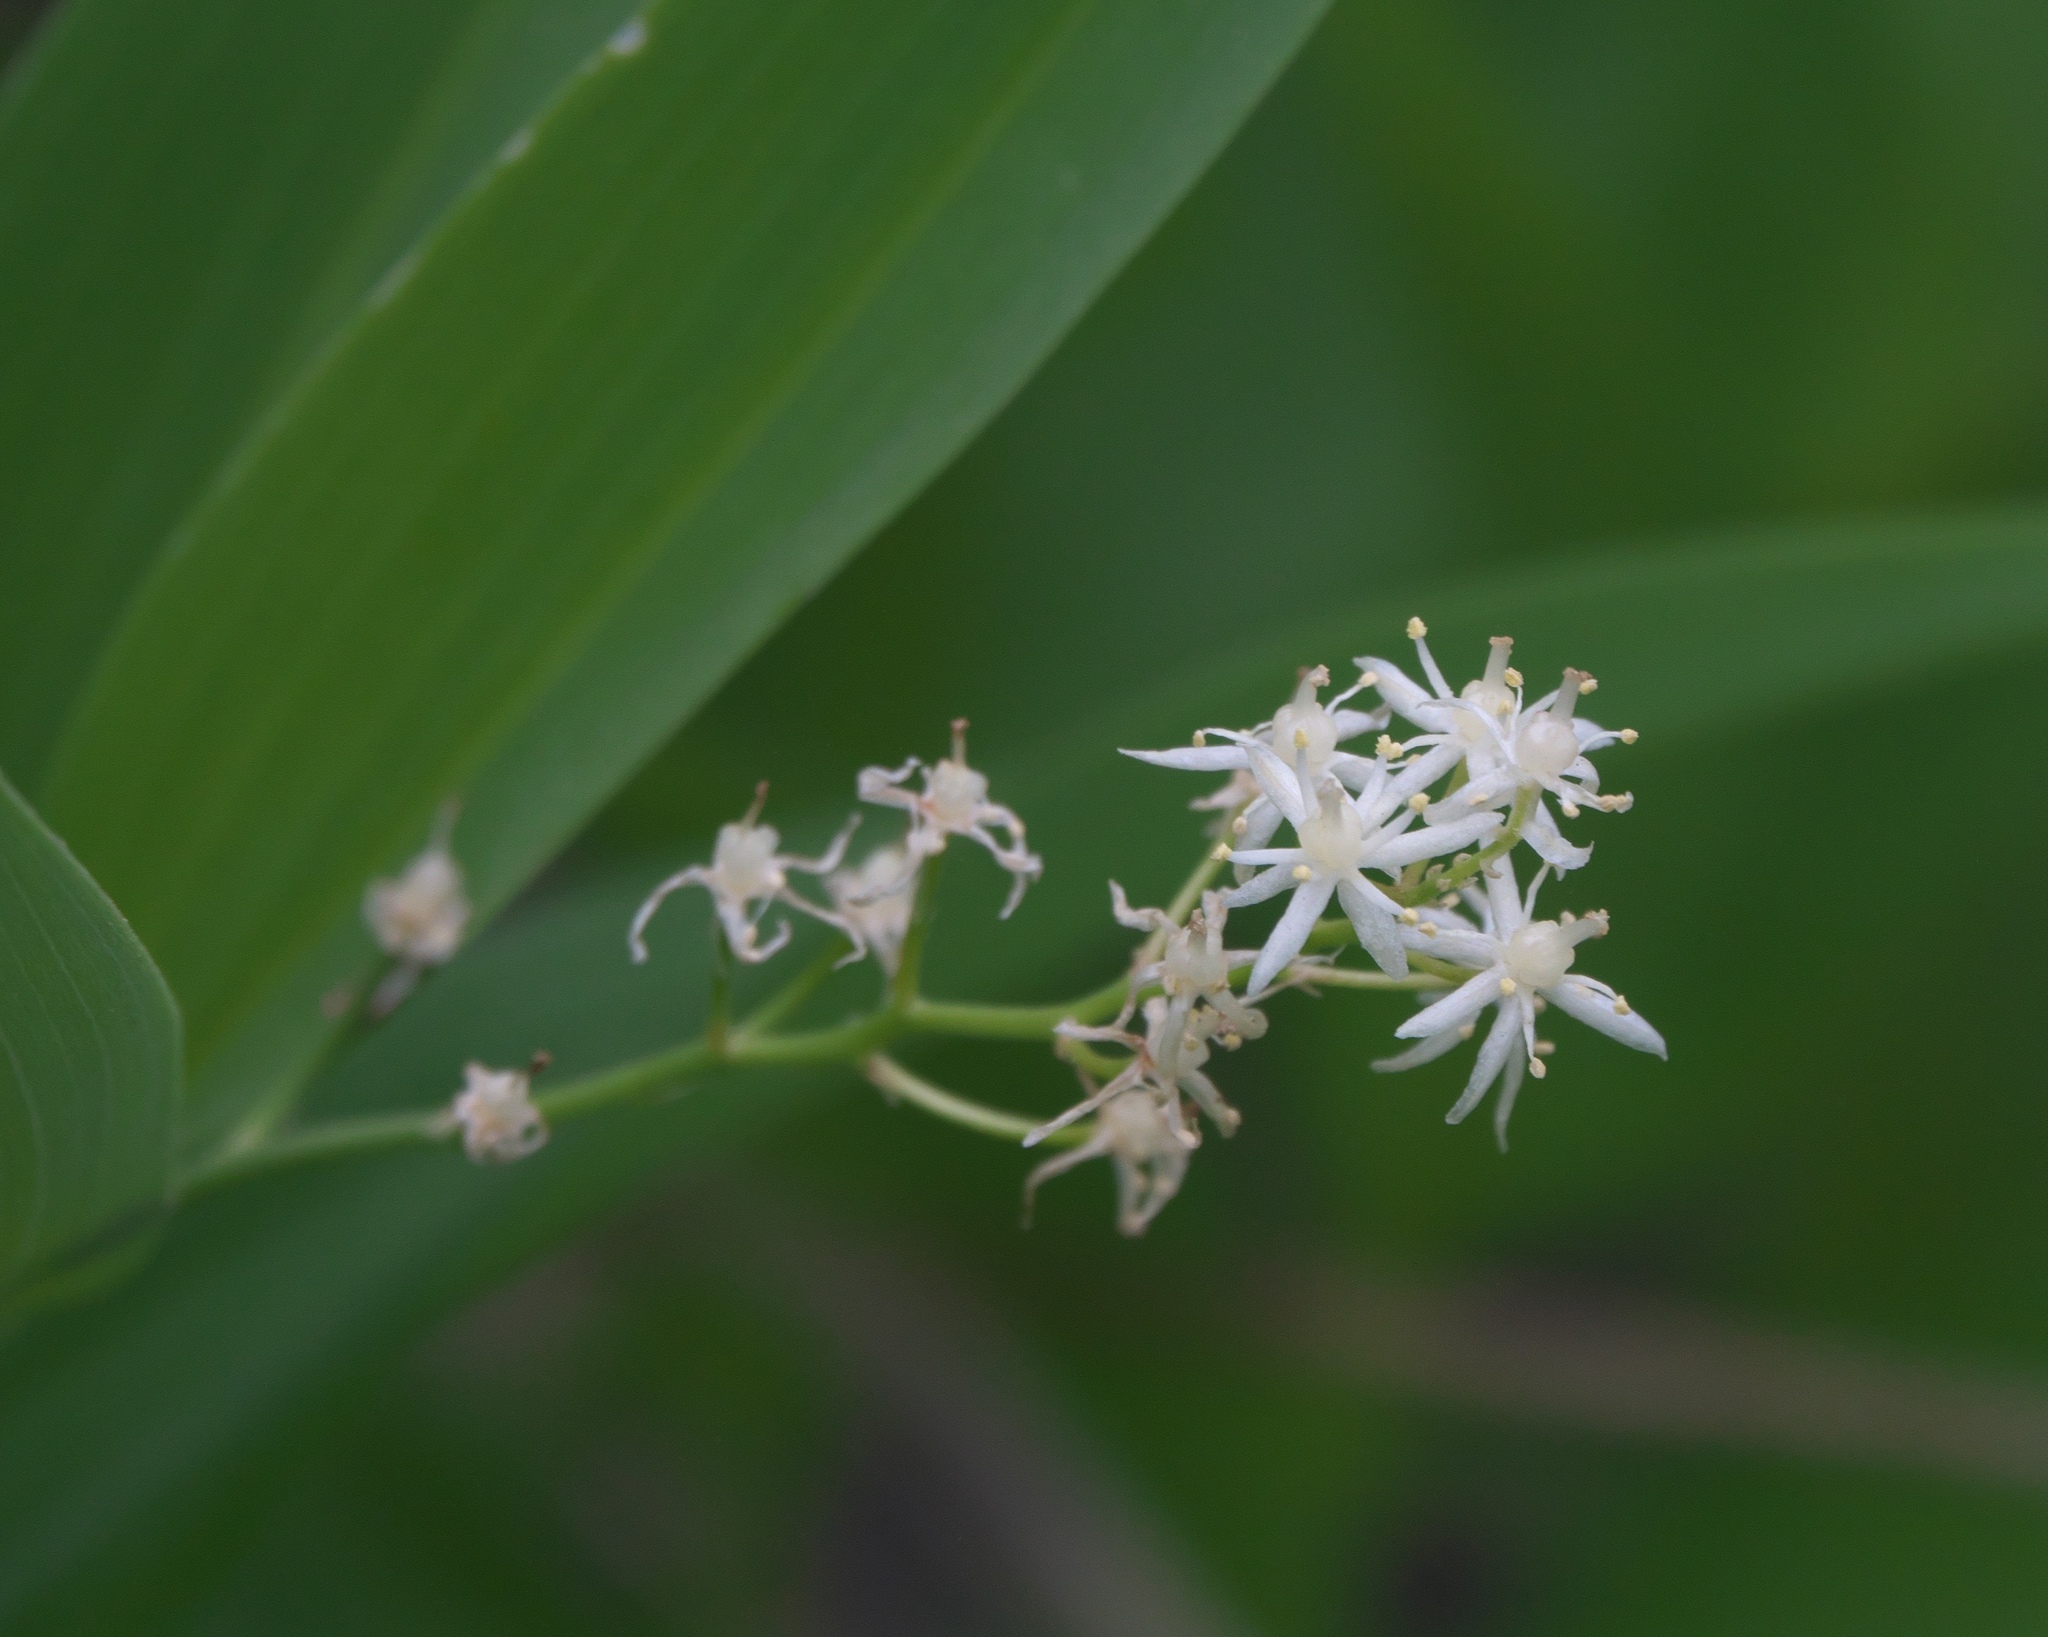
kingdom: Plantae
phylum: Tracheophyta
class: Liliopsida
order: Asparagales
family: Asparagaceae
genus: Maianthemum
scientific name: Maianthemum stellatum
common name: Little false solomon's seal
